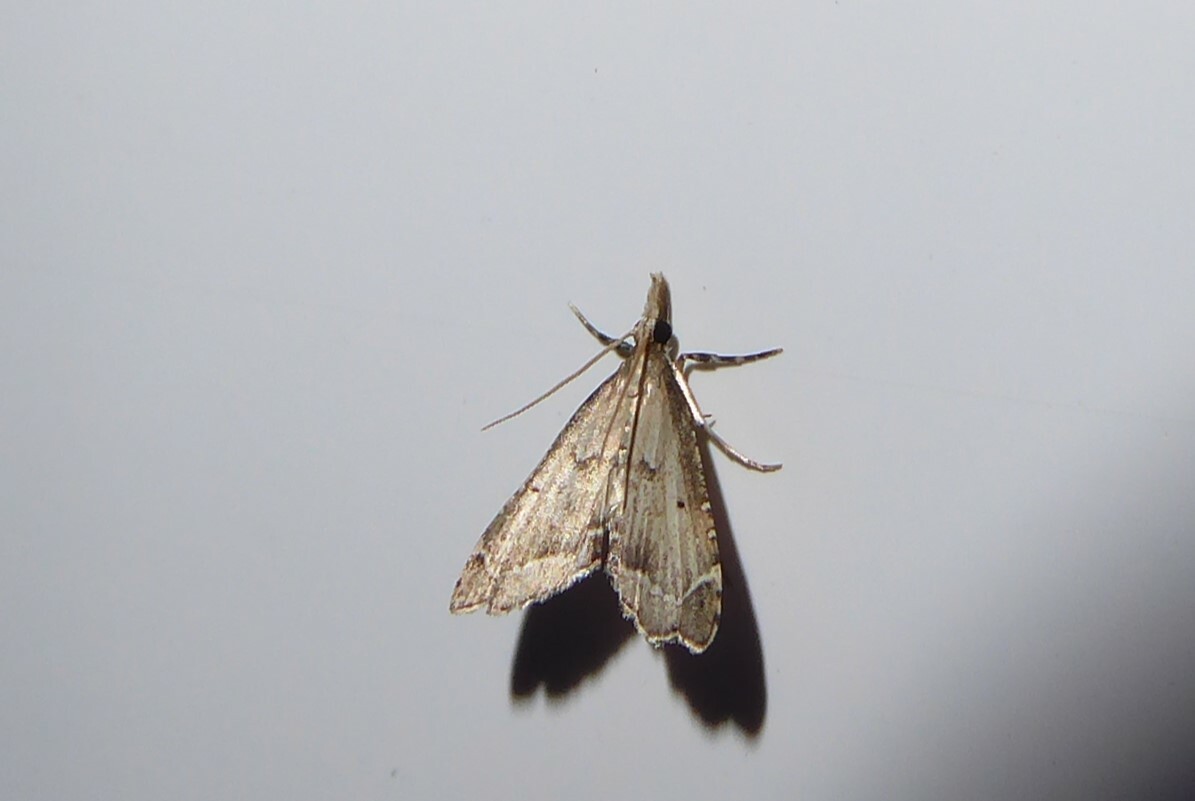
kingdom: Animalia
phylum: Arthropoda
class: Insecta
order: Lepidoptera
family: Crambidae
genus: Diplopseustis
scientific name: Diplopseustis perieresalis
